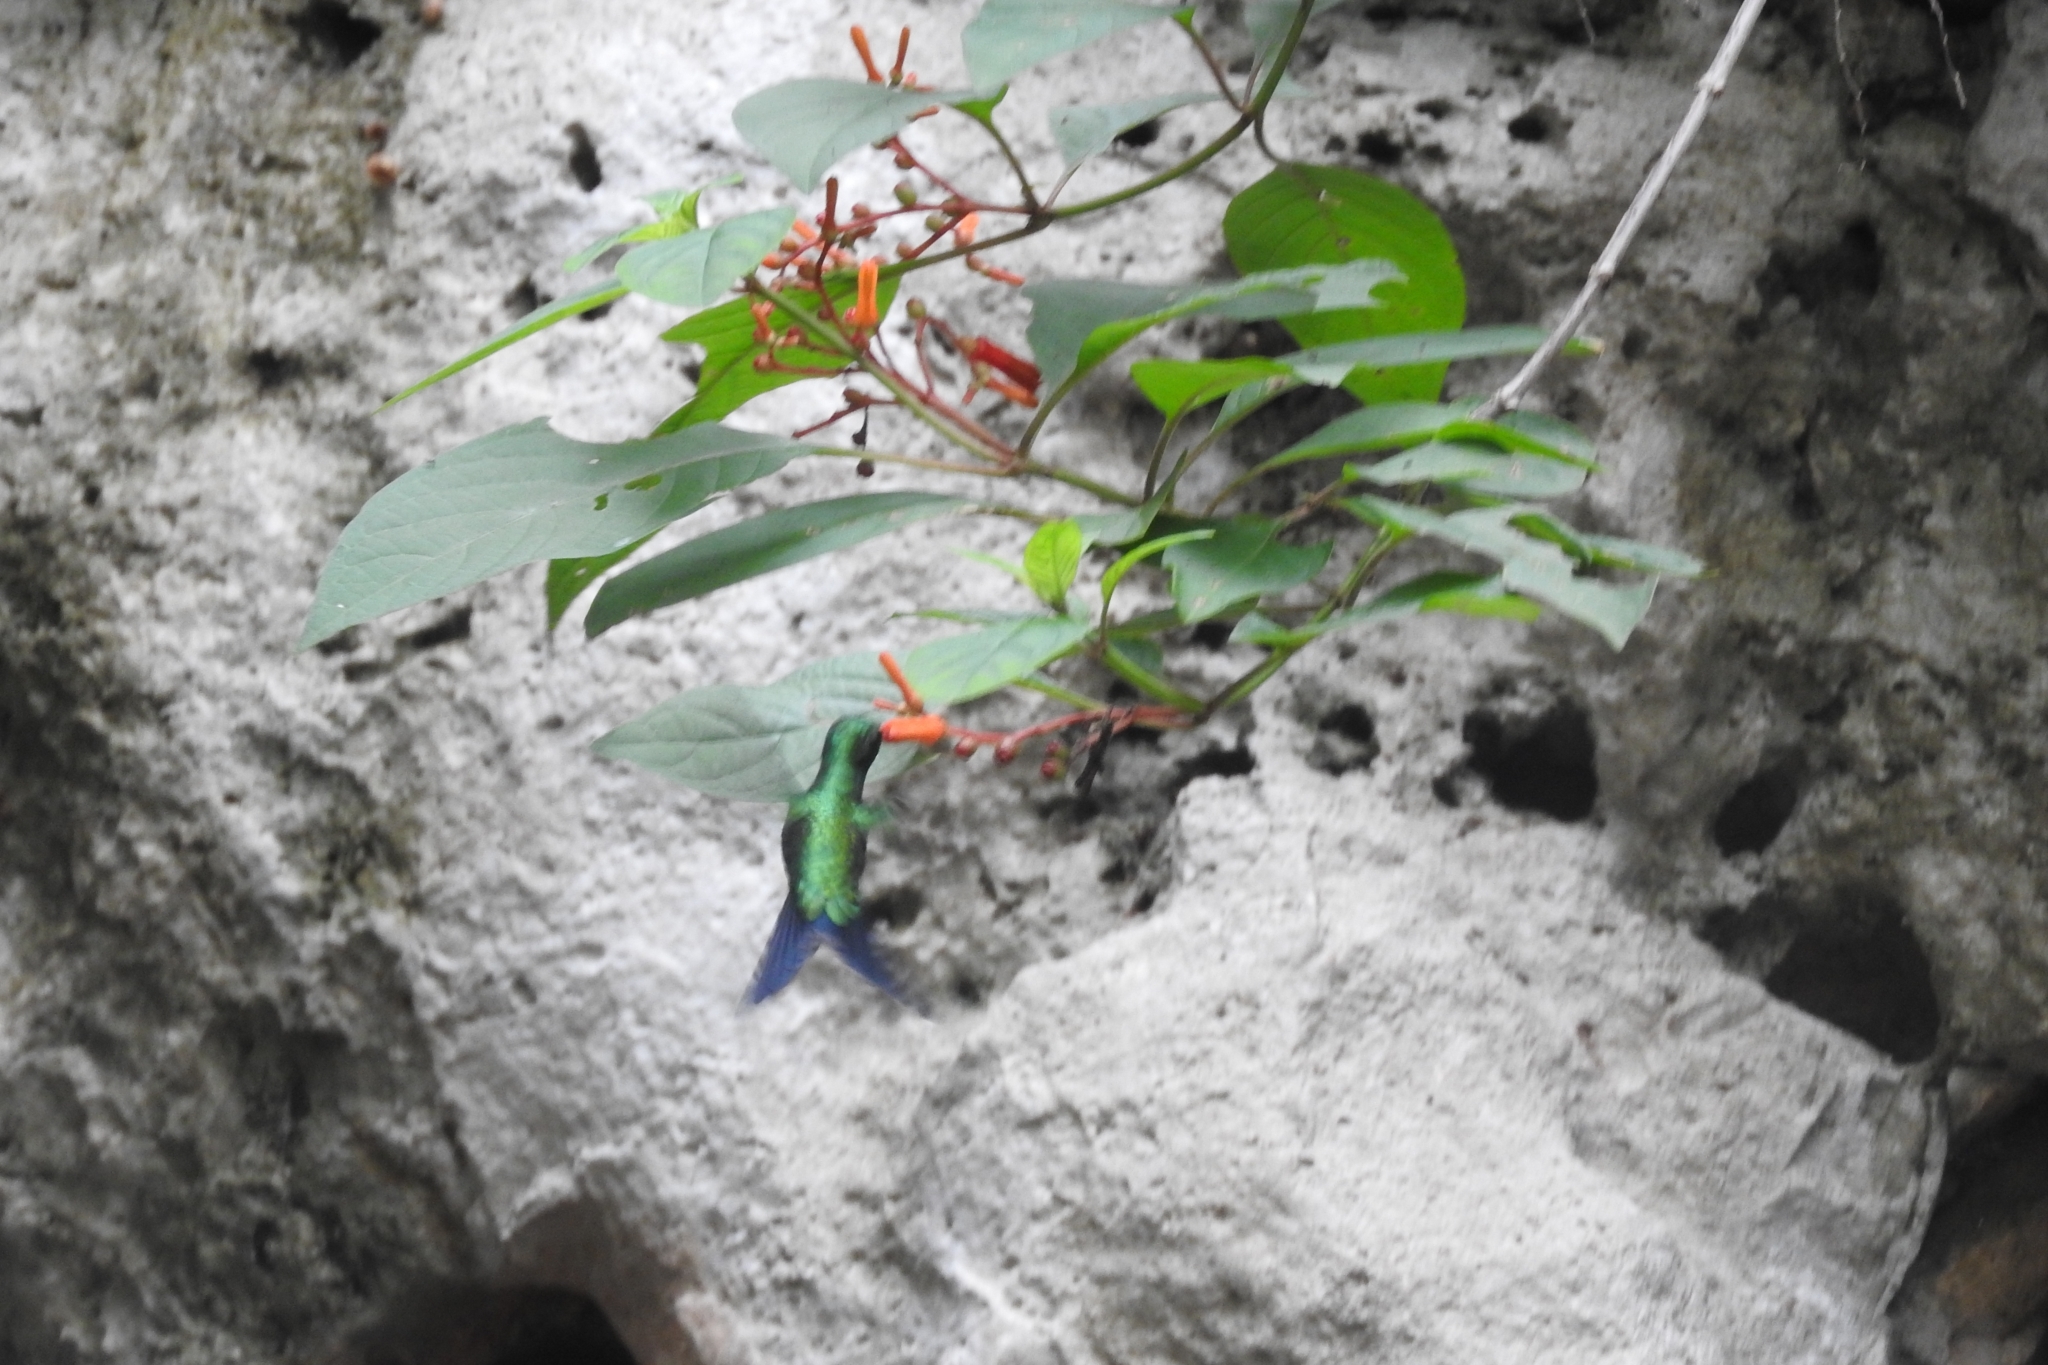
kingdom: Animalia
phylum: Chordata
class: Aves
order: Apodiformes
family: Trochilidae
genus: Cynanthus
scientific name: Cynanthus canivetii
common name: Canivet's emerald
